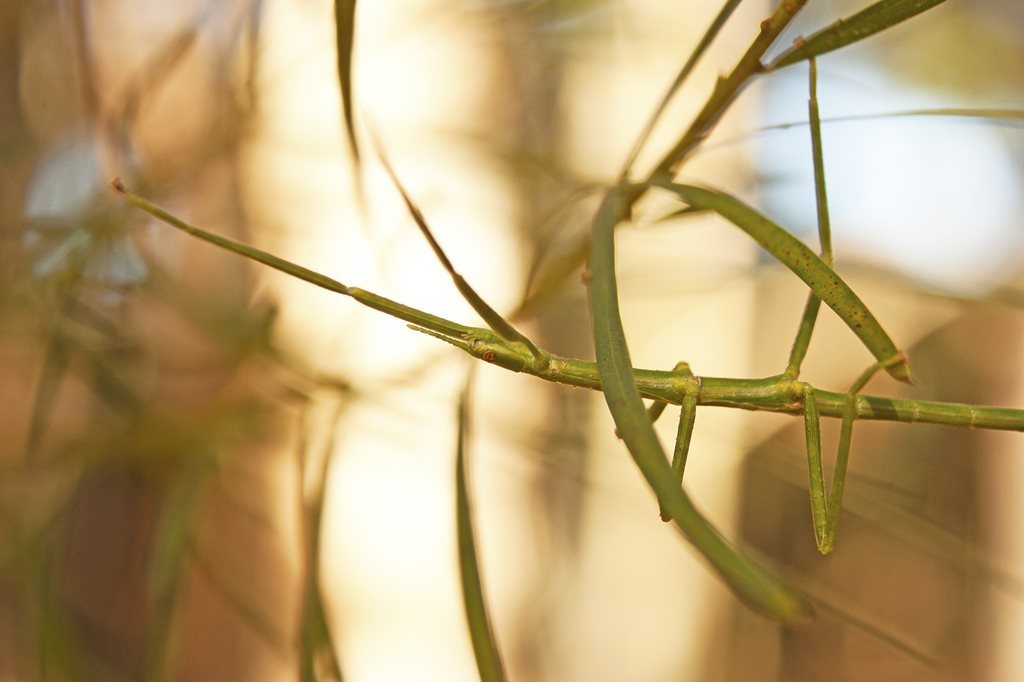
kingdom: Animalia
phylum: Arthropoda
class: Insecta
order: Phasmida
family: Phasmatidae
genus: Acrophylla
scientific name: Acrophylla titan
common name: Titan stick insect
